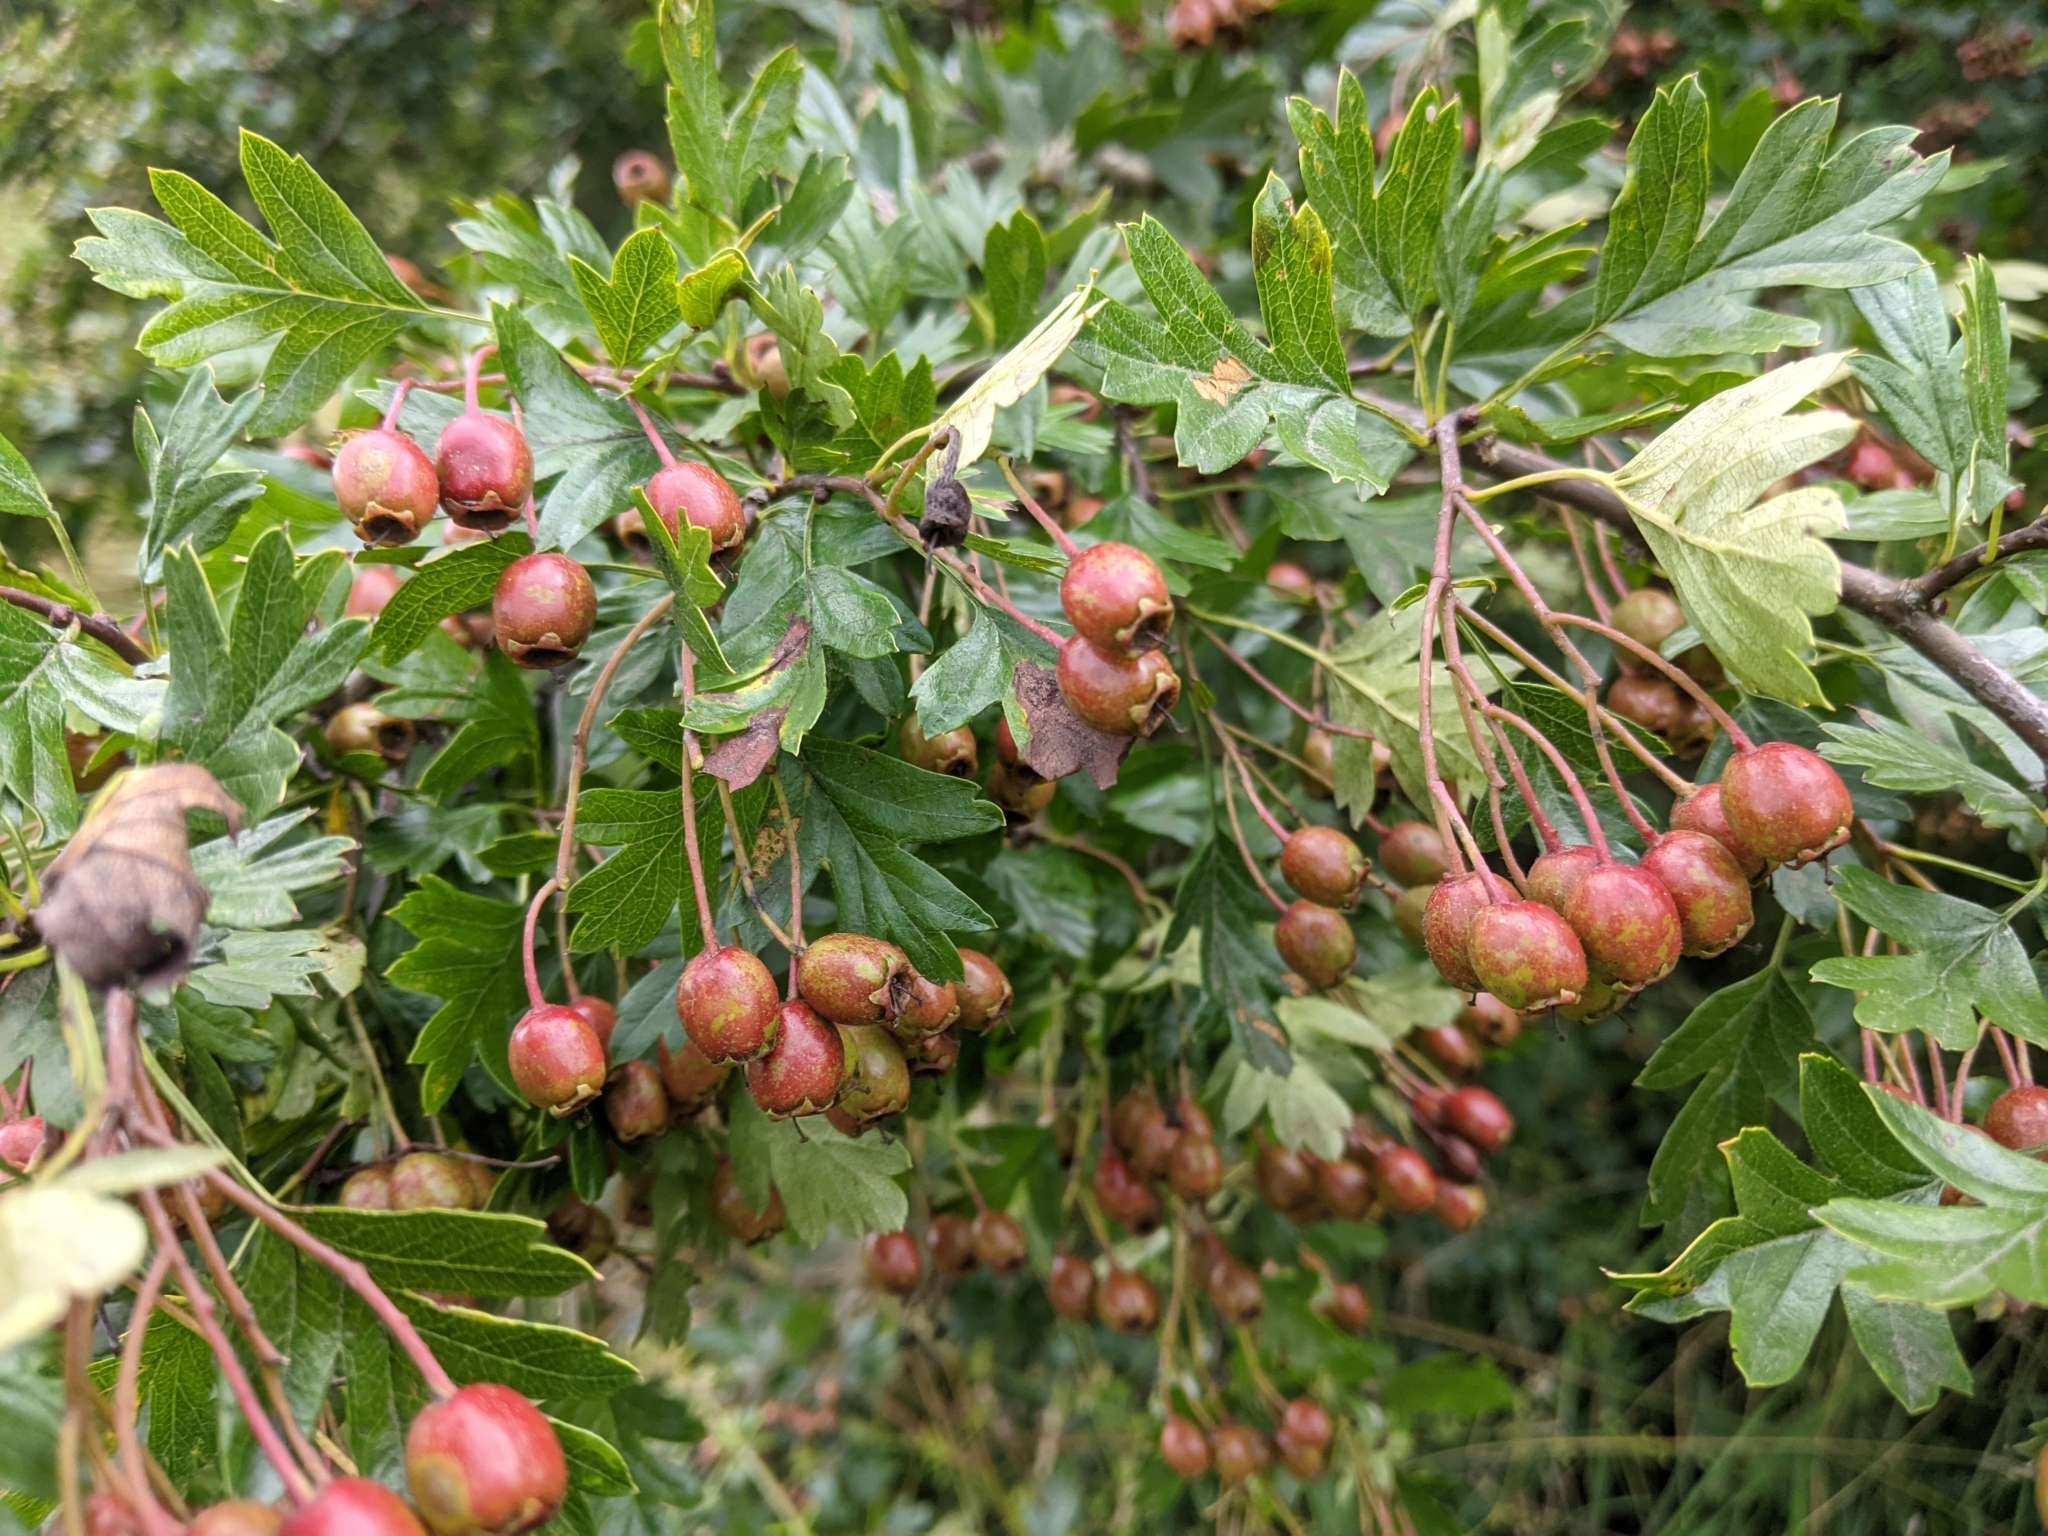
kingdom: Plantae
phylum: Tracheophyta
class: Magnoliopsida
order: Rosales
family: Rosaceae
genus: Crataegus
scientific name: Crataegus monogyna
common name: Hawthorn
